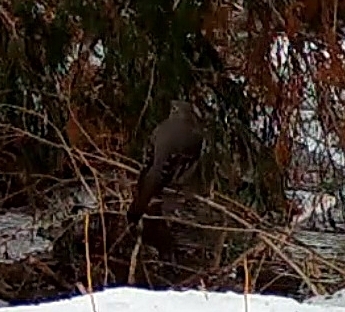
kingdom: Animalia
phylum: Chordata
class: Aves
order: Passeriformes
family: Turdidae
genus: Myadestes
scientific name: Myadestes townsendi
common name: Townsend's solitaire
